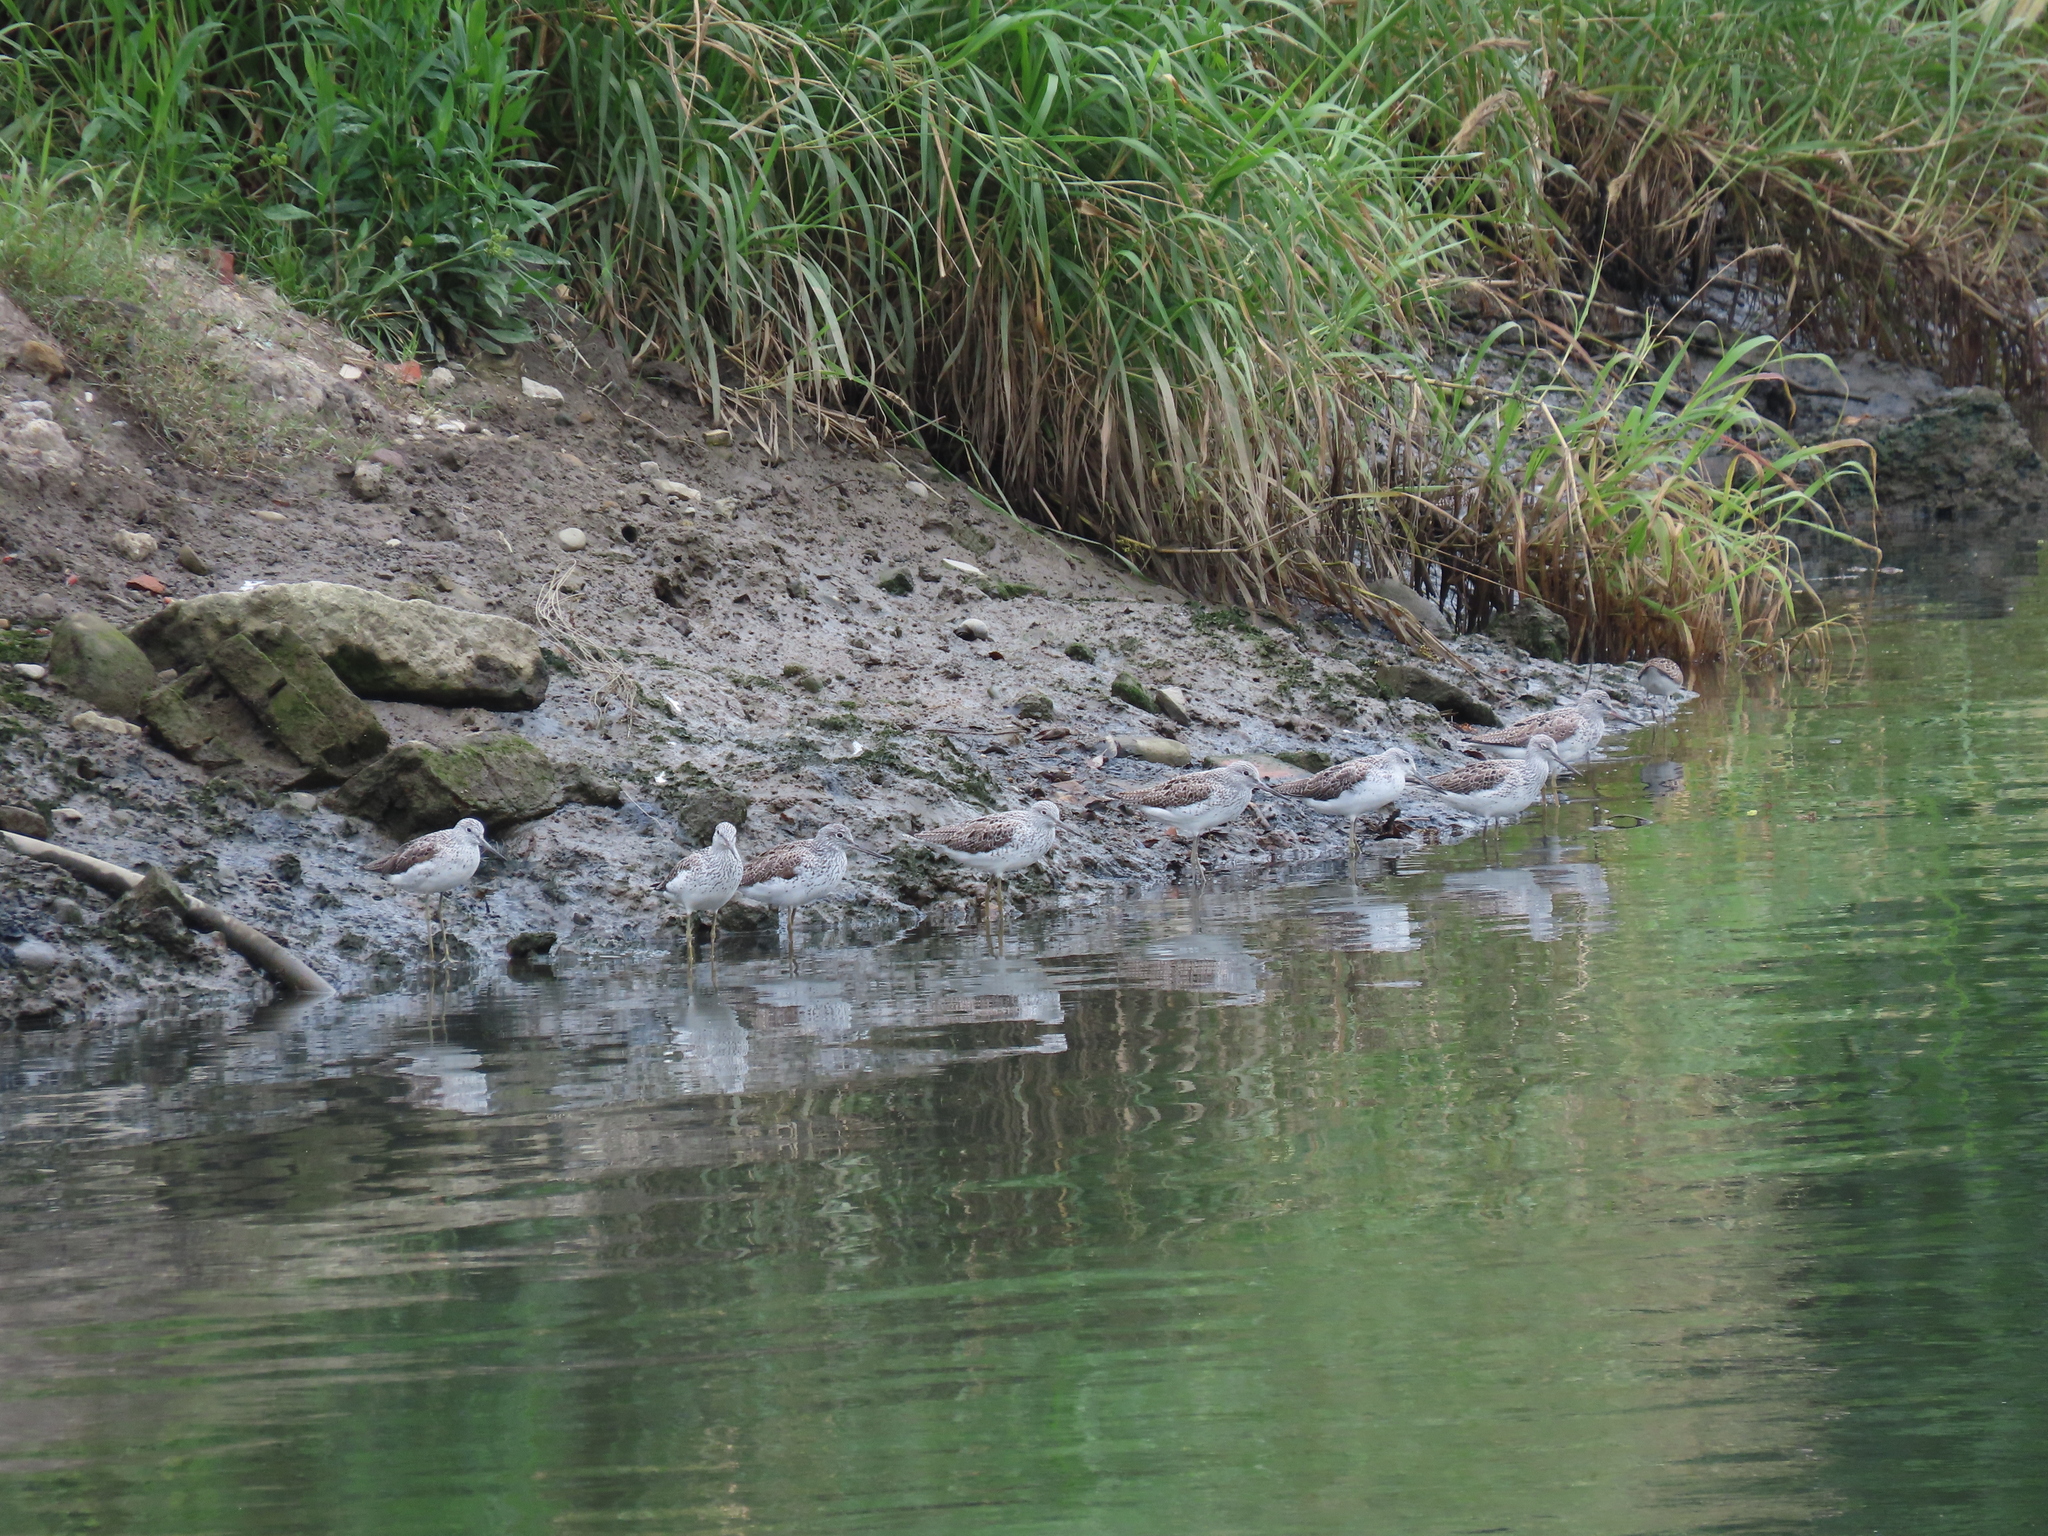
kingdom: Animalia
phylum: Chordata
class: Aves
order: Charadriiformes
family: Scolopacidae
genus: Tringa
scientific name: Tringa nebularia
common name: Common greenshank
